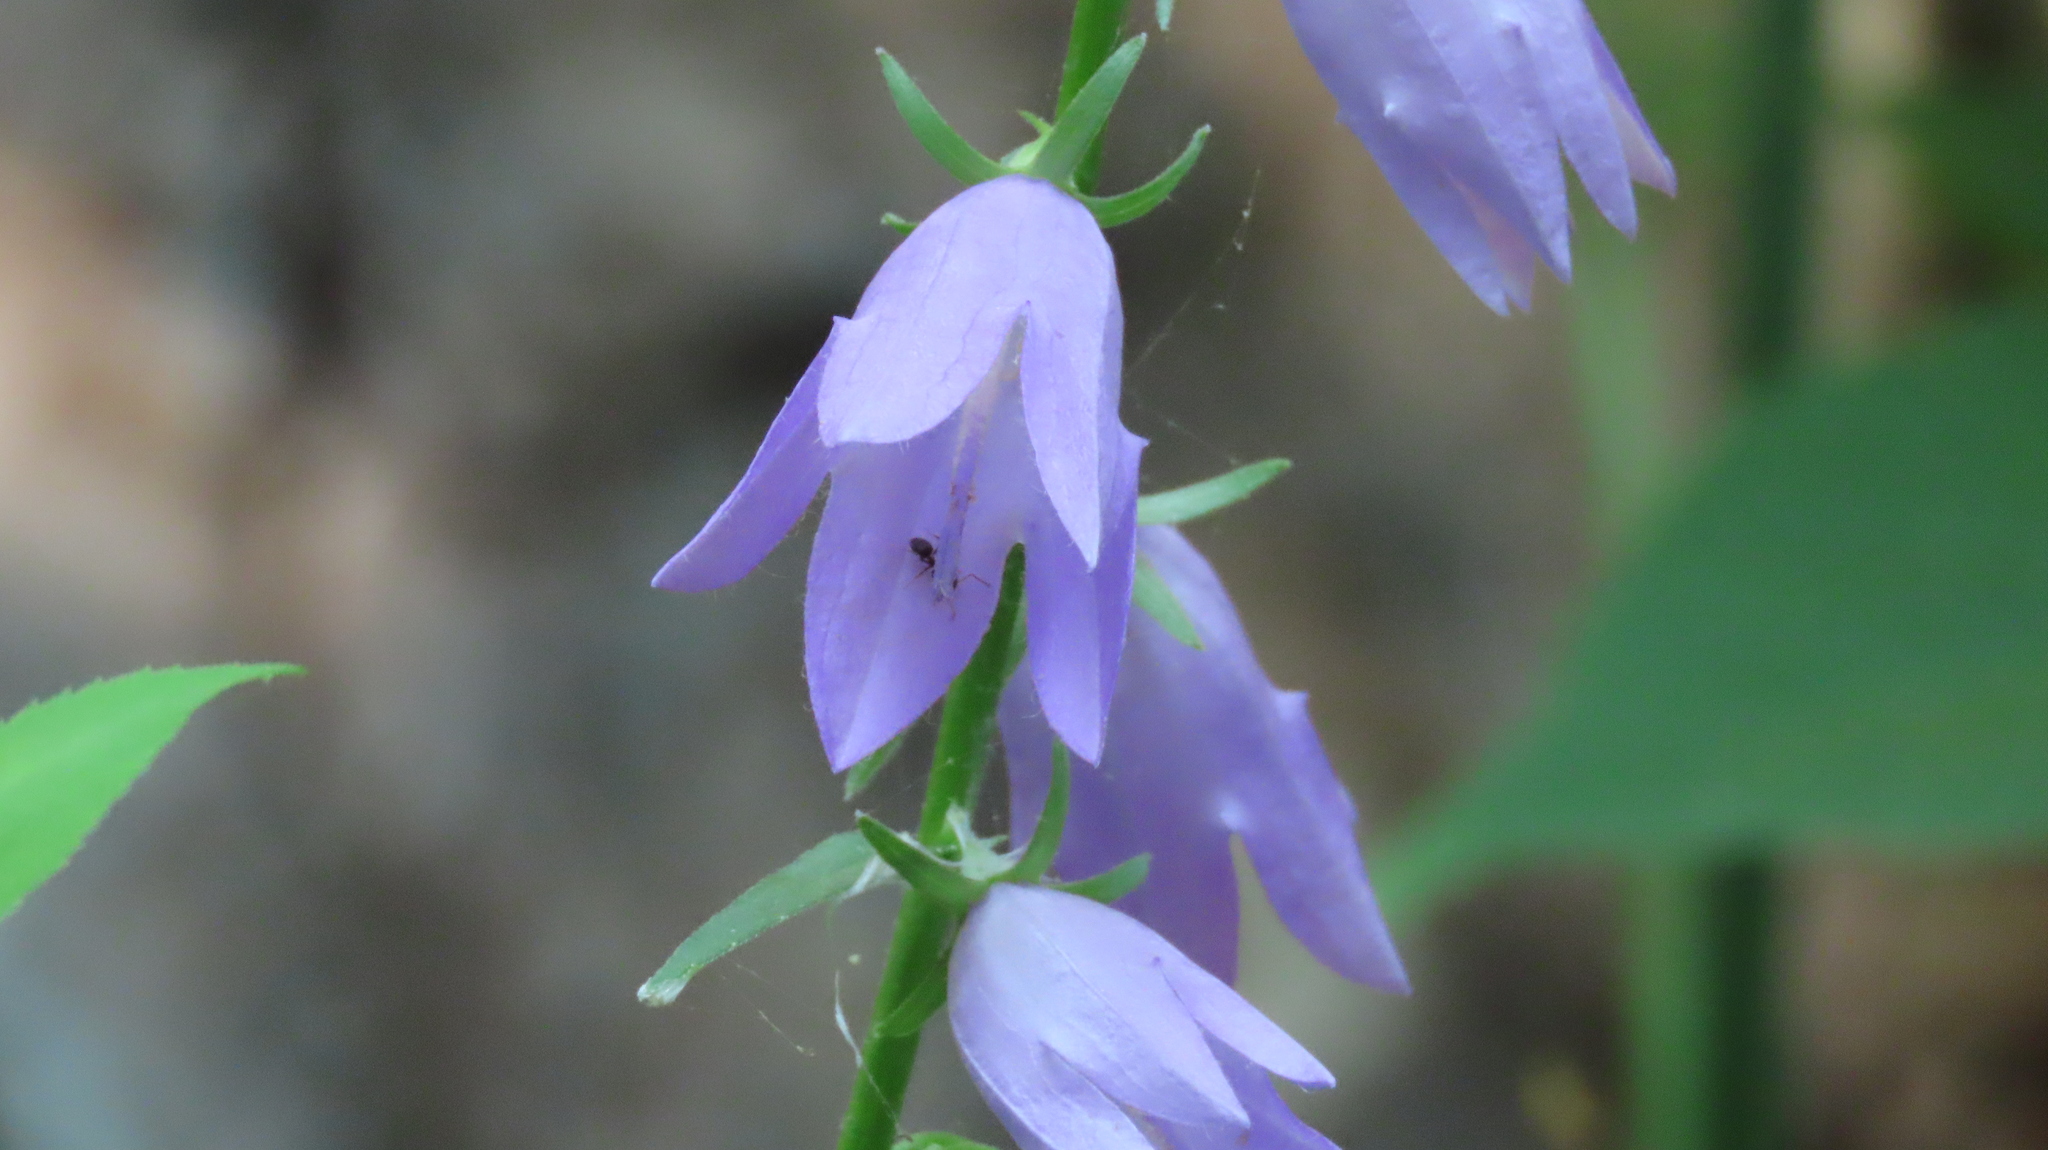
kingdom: Plantae
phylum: Tracheophyta
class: Magnoliopsida
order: Asterales
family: Campanulaceae
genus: Campanula
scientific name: Campanula rapunculoides
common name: Creeping bellflower
